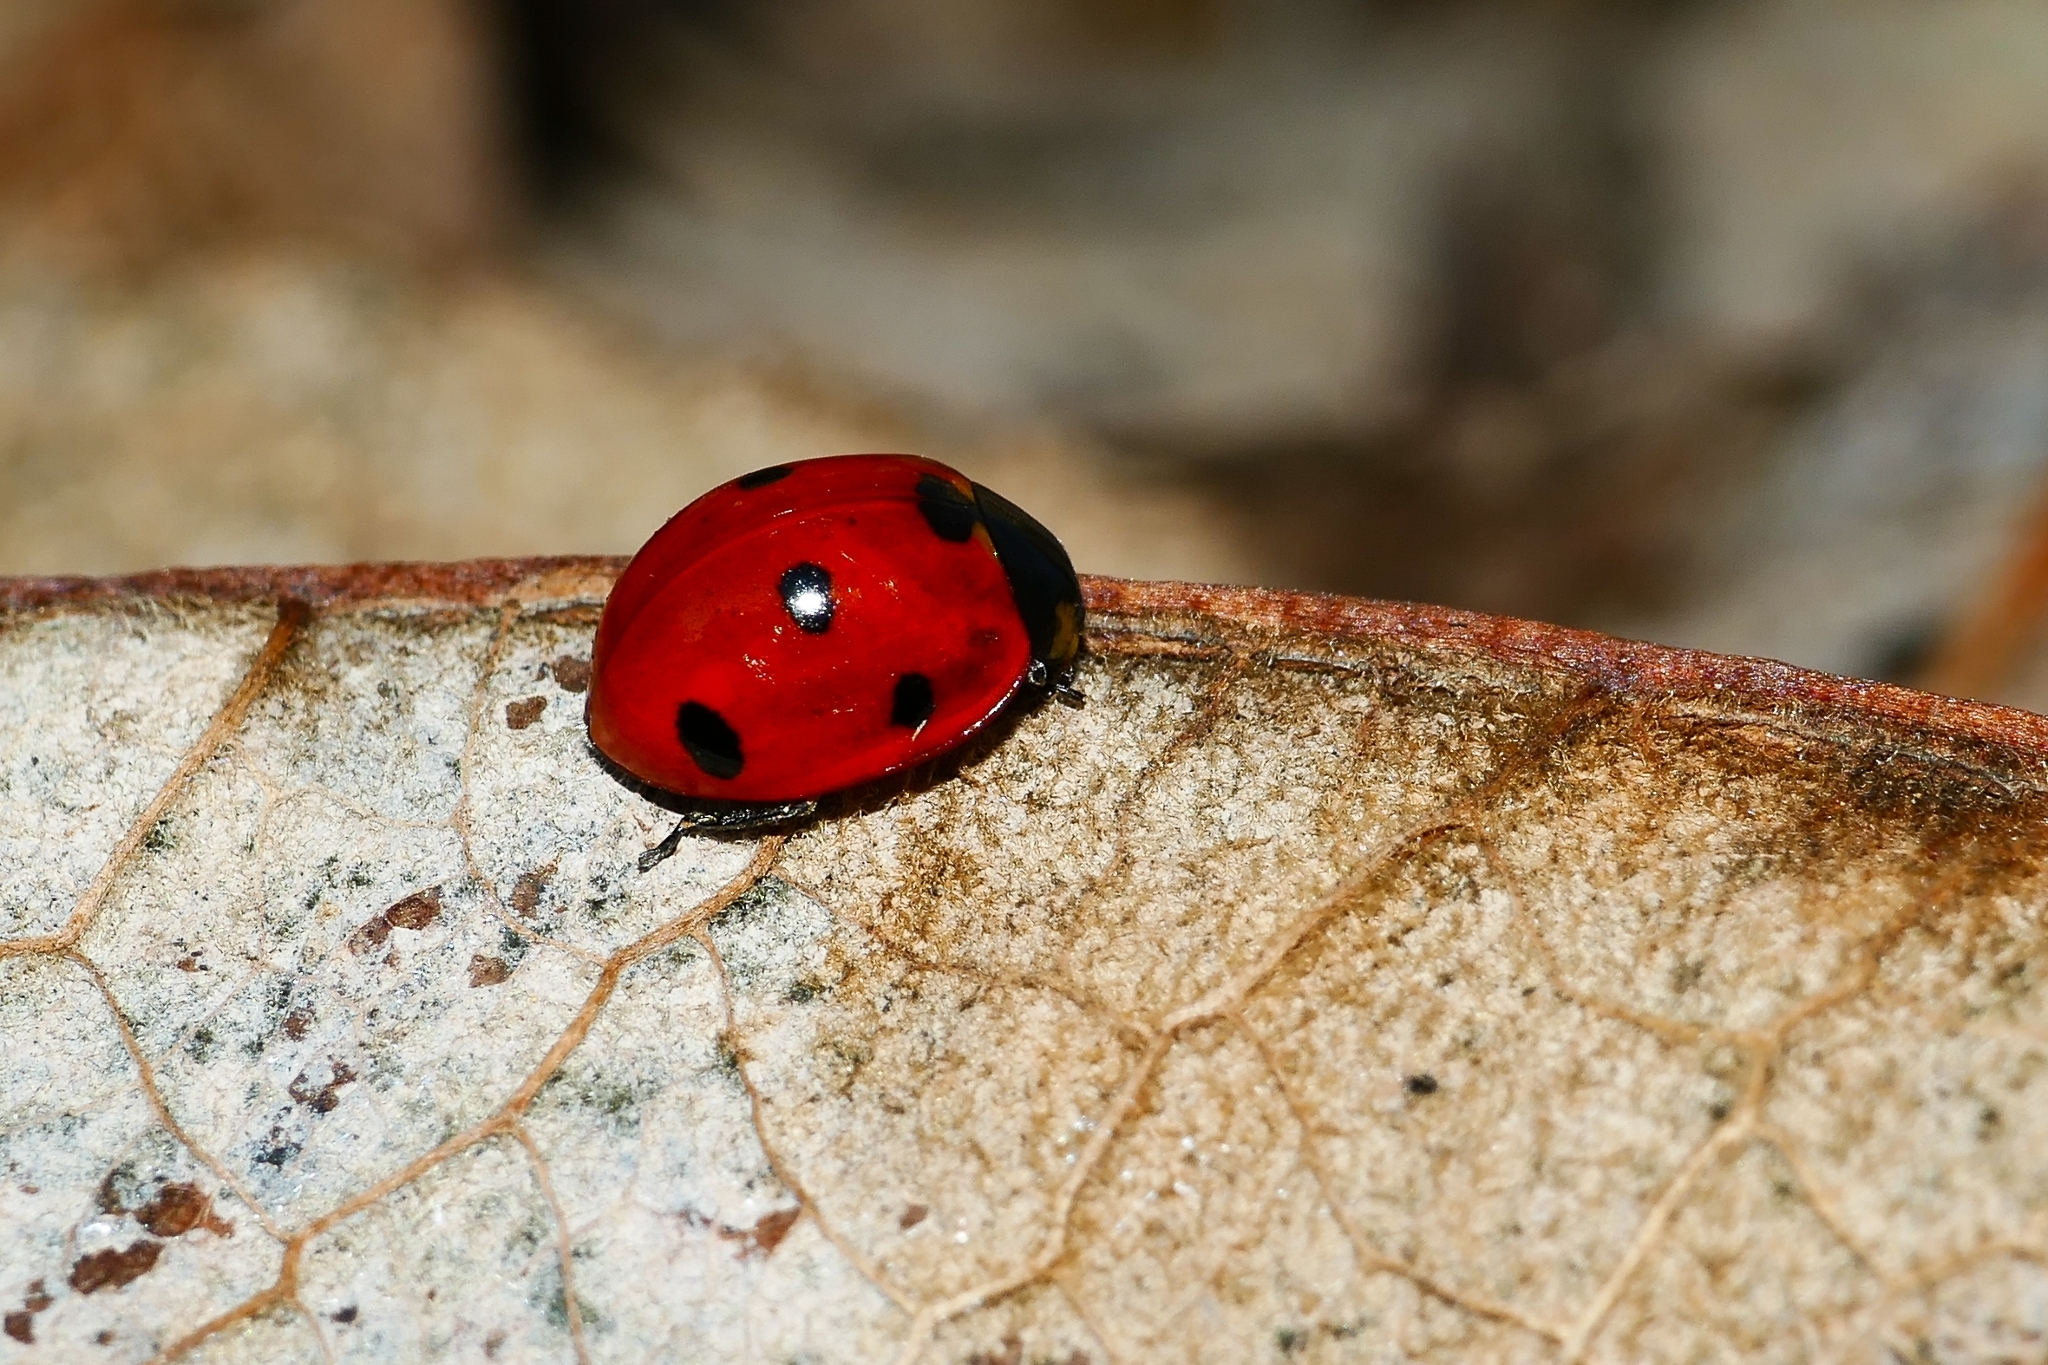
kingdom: Animalia
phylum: Arthropoda
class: Insecta
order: Coleoptera
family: Coccinellidae
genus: Coccinella
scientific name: Coccinella septempunctata
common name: Sevenspotted lady beetle
